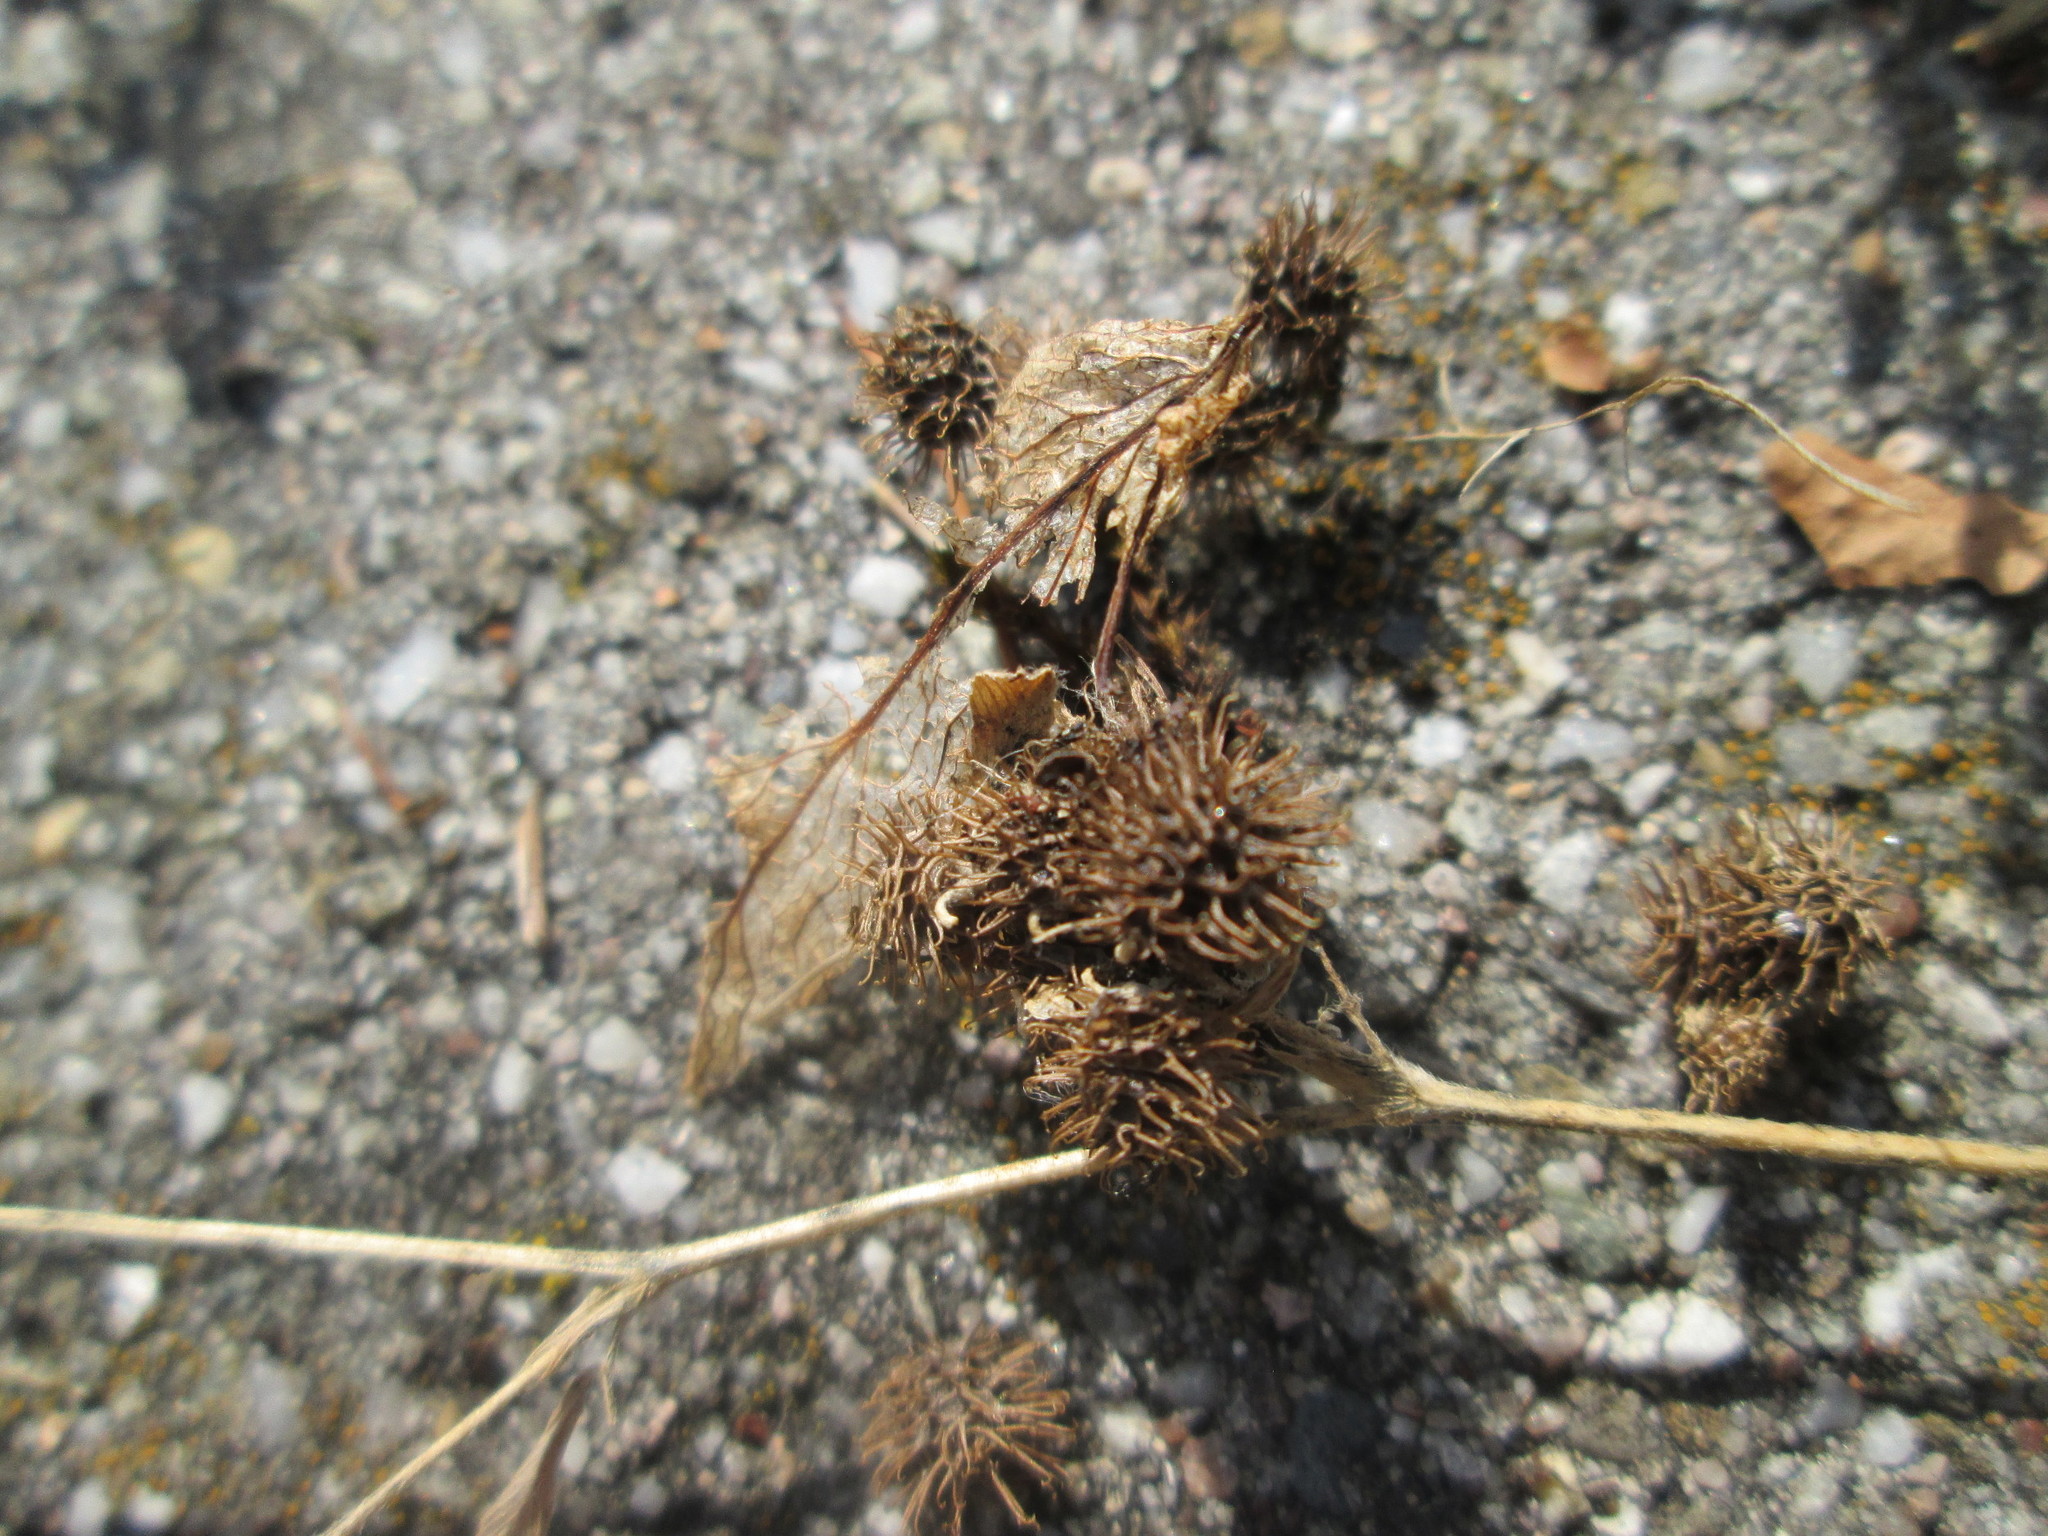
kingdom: Plantae
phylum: Tracheophyta
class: Magnoliopsida
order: Fabales
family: Fabaceae
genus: Medicago
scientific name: Medicago minima
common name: Little bur-clover
